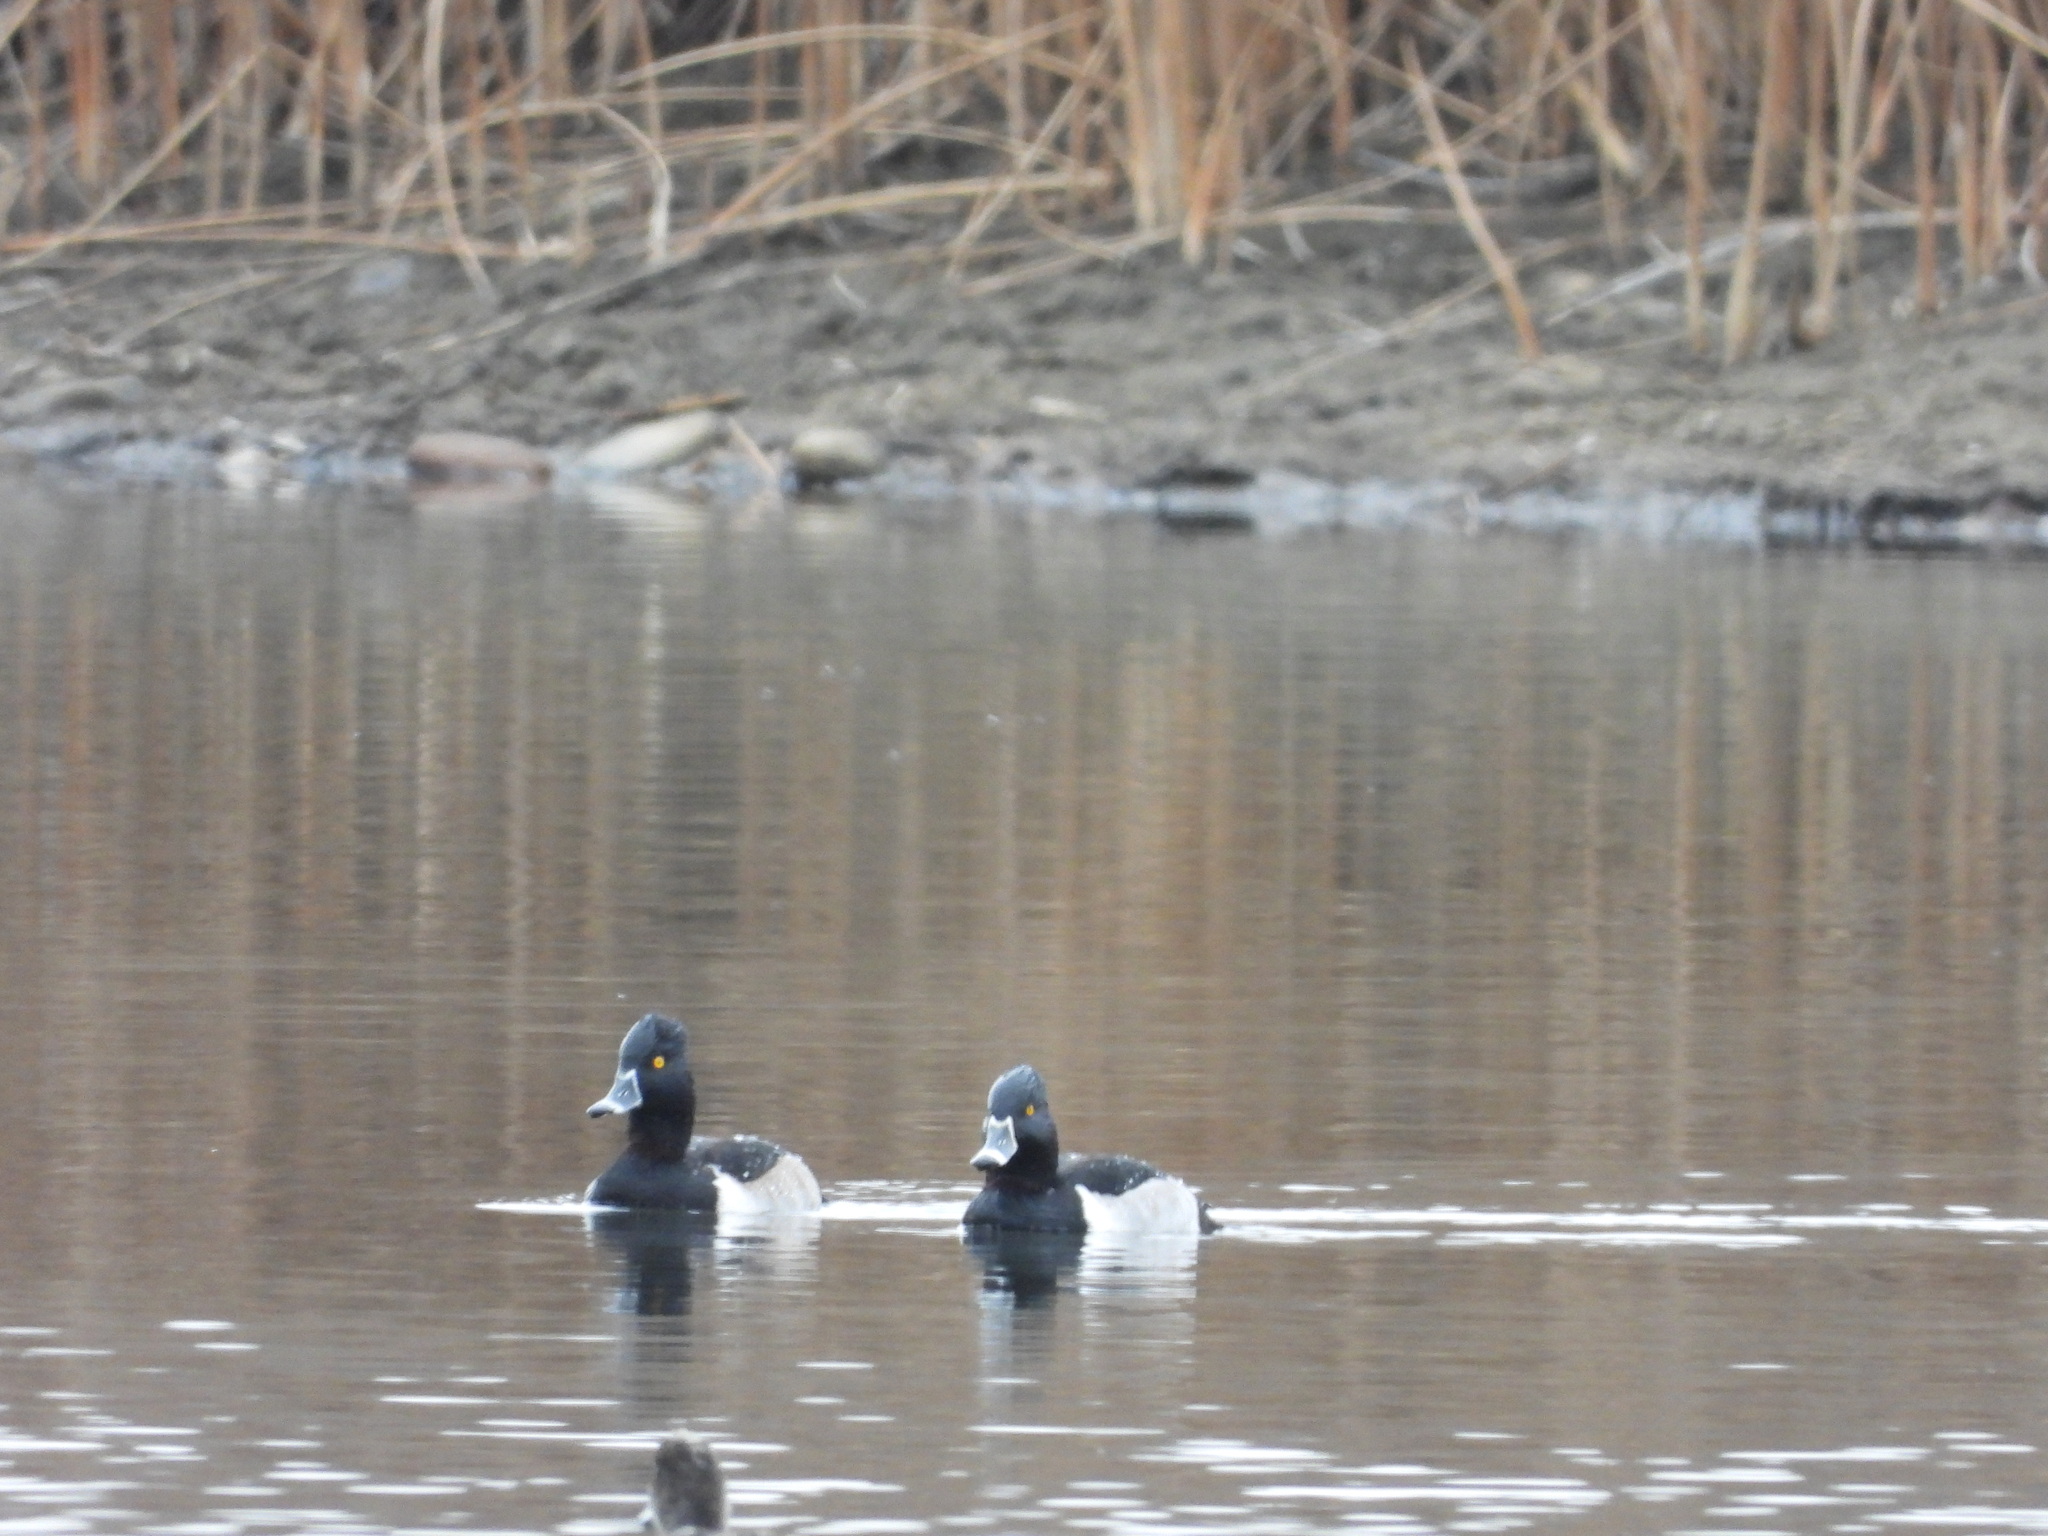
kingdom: Animalia
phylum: Chordata
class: Aves
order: Anseriformes
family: Anatidae
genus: Aythya
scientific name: Aythya collaris
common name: Ring-necked duck
